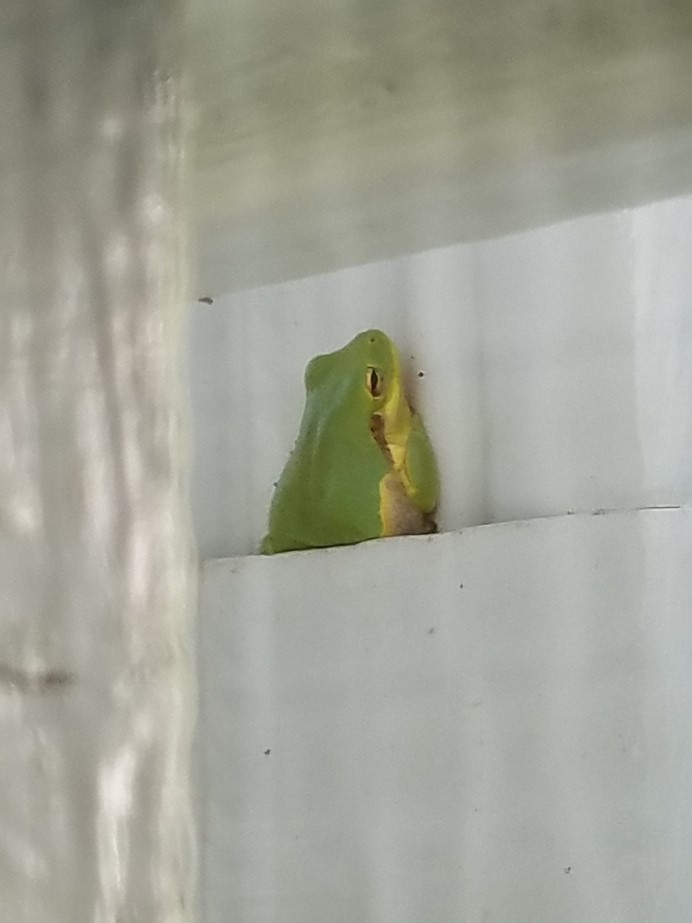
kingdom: Animalia
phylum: Chordata
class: Amphibia
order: Anura
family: Hylidae
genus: Dryophytes
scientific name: Dryophytes squirellus
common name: Squirrel treefrog
